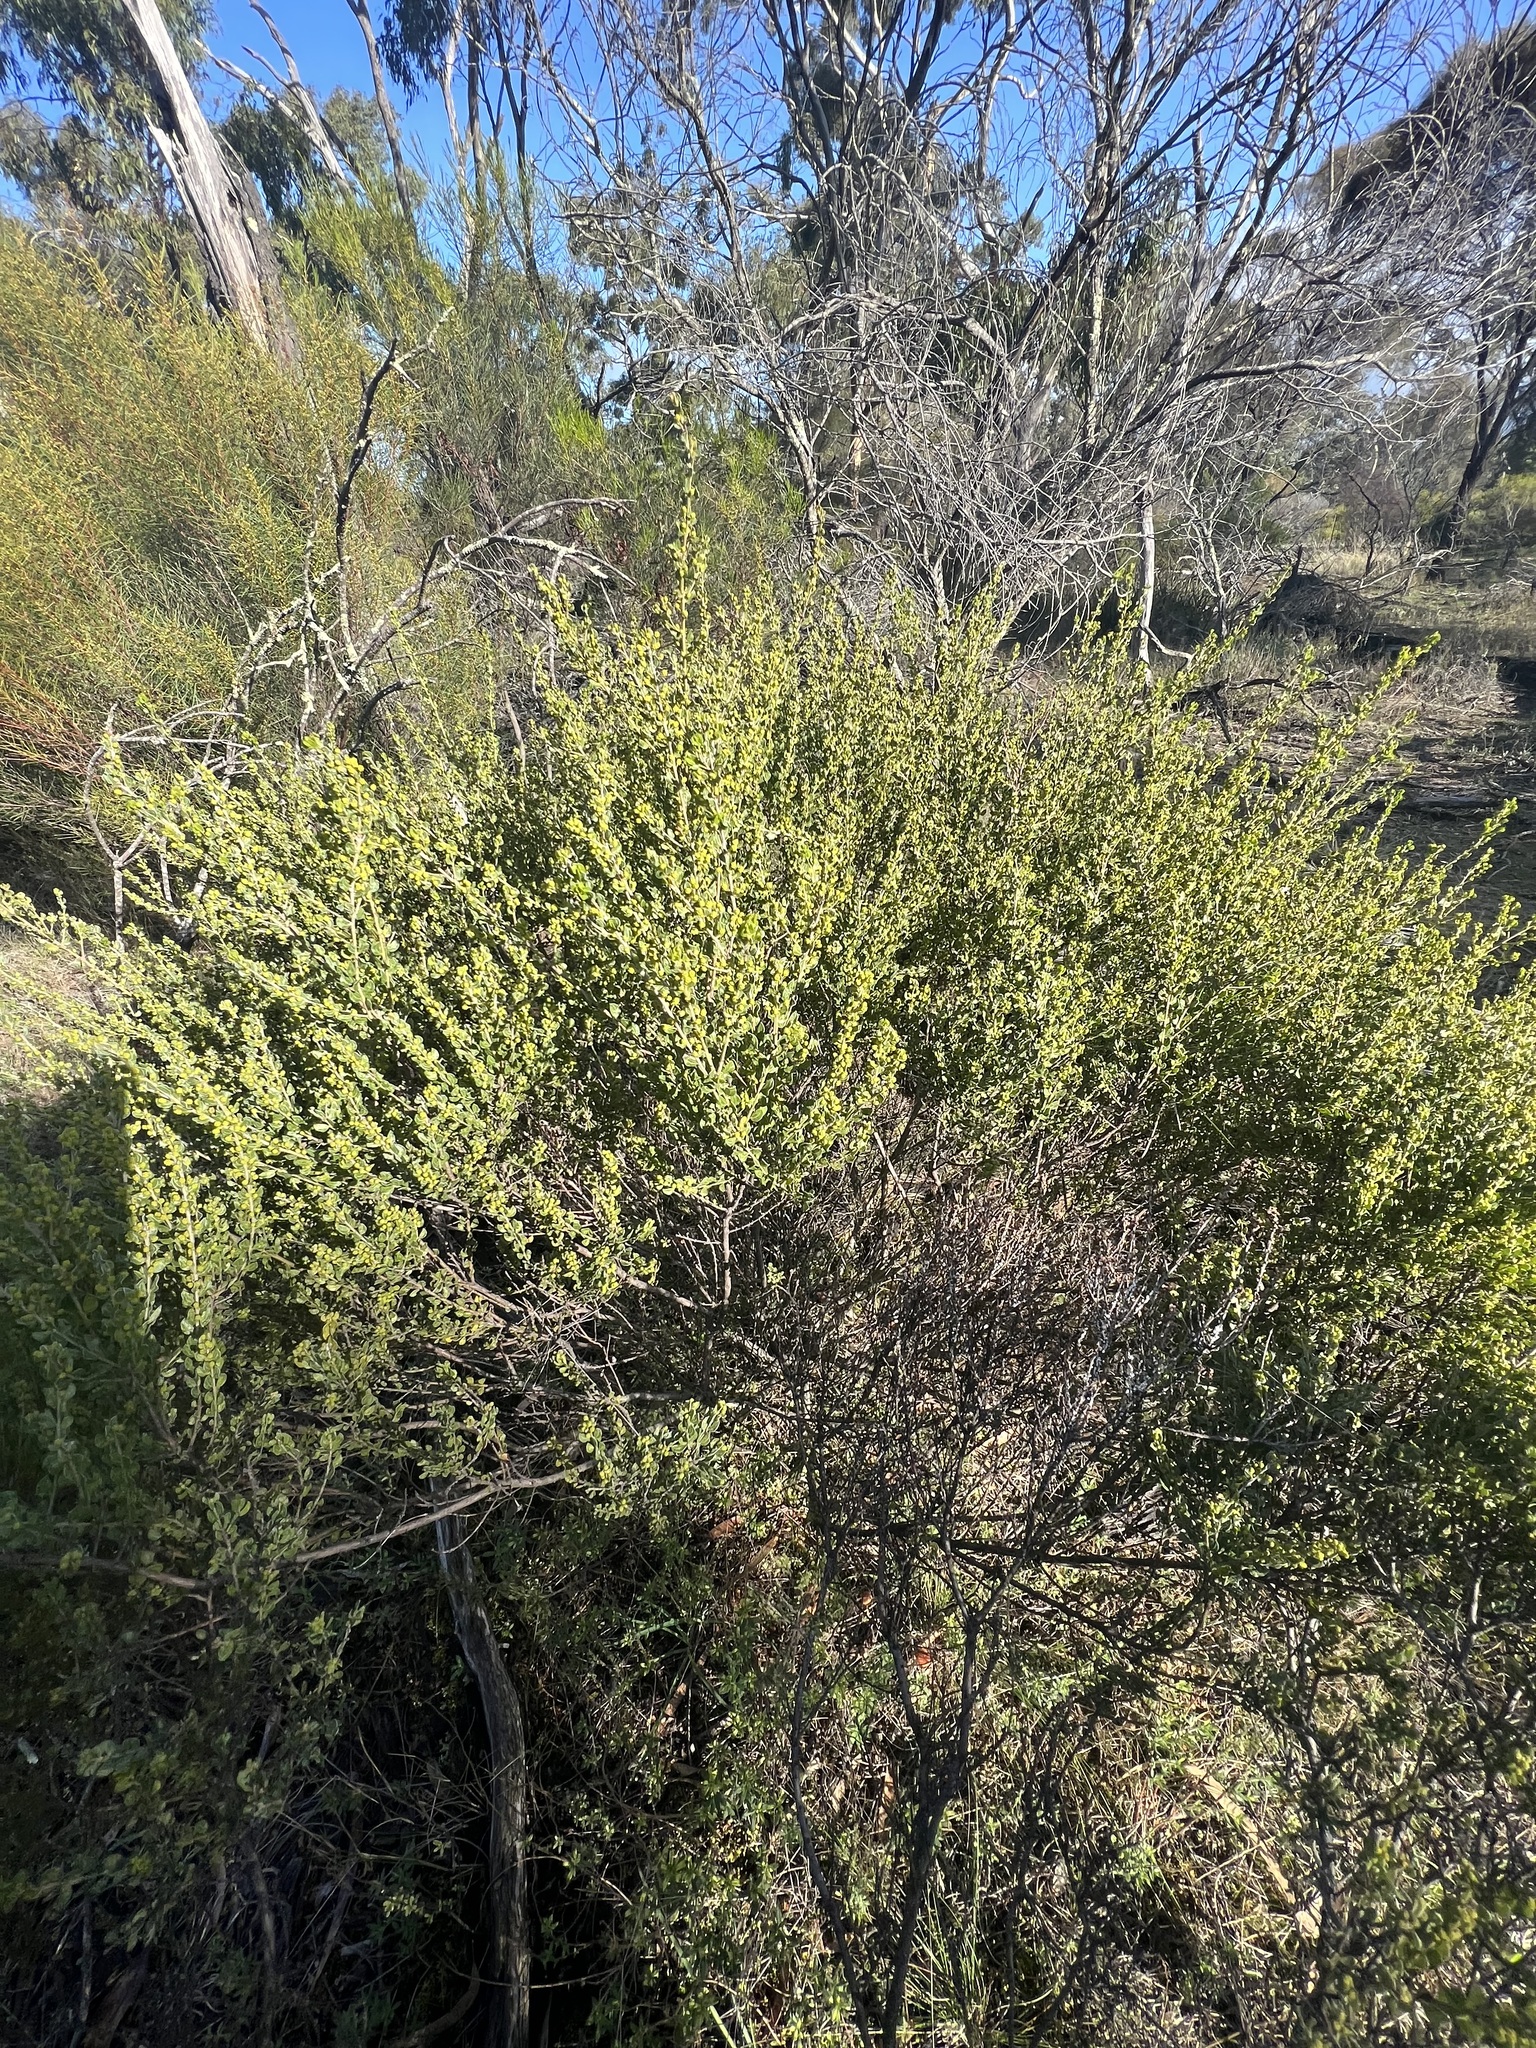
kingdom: Plantae
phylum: Tracheophyta
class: Magnoliopsida
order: Fabales
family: Fabaceae
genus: Acacia
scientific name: Acacia glandulicarpa
